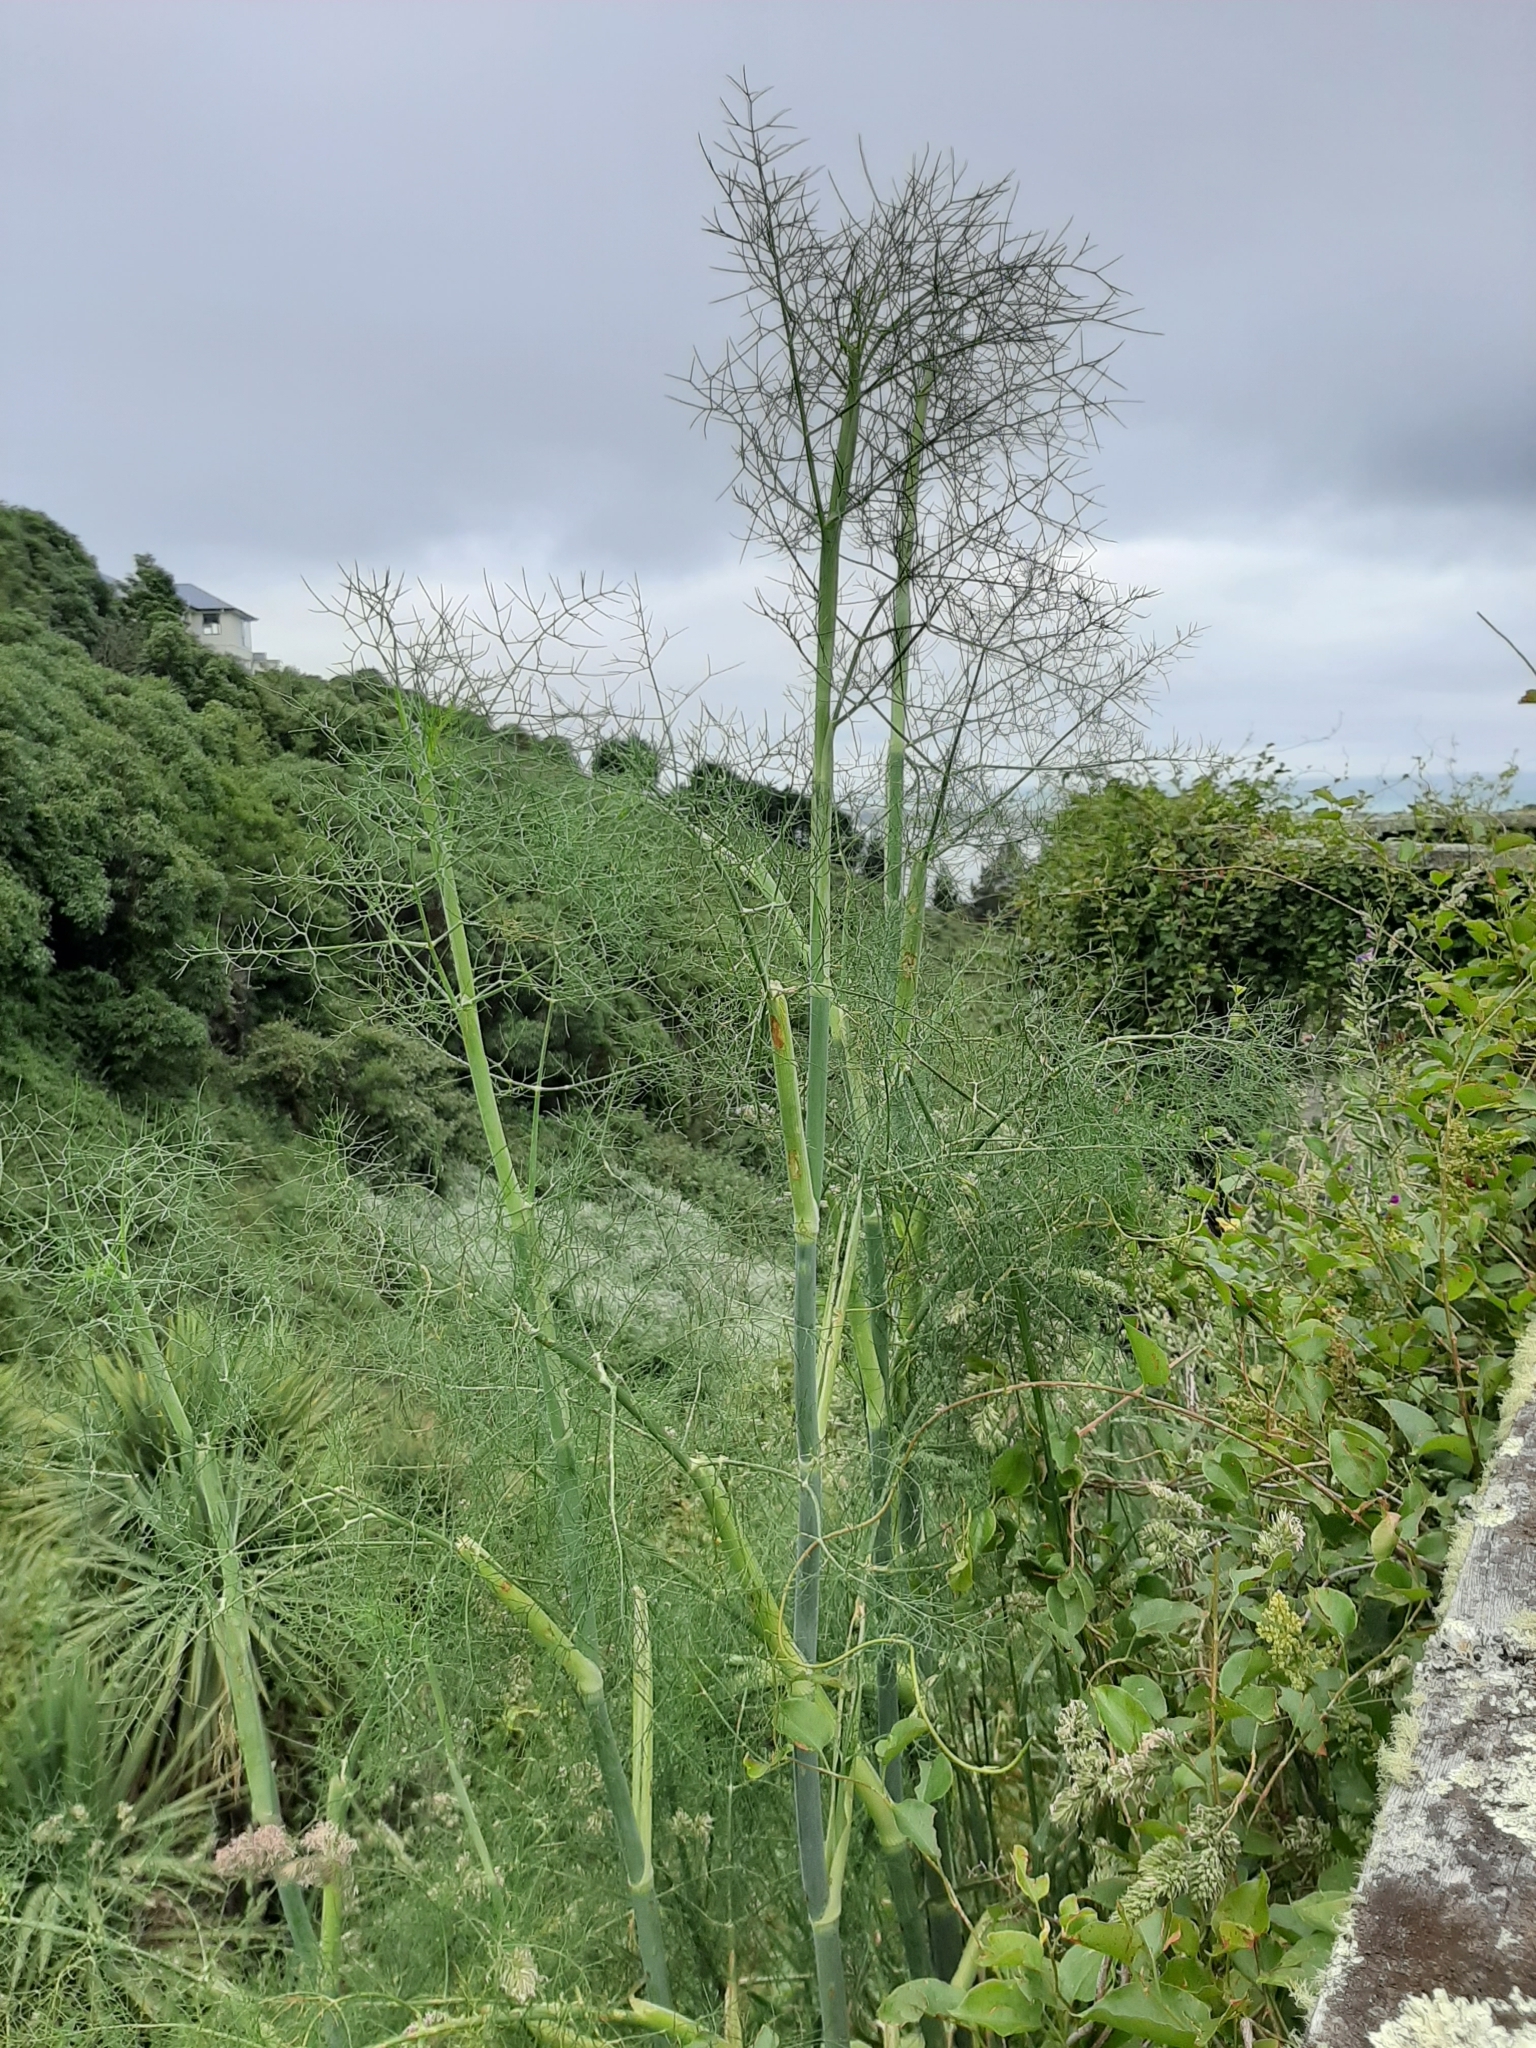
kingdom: Plantae
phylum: Tracheophyta
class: Magnoliopsida
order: Apiales
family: Apiaceae
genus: Foeniculum
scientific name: Foeniculum vulgare
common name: Fennel
